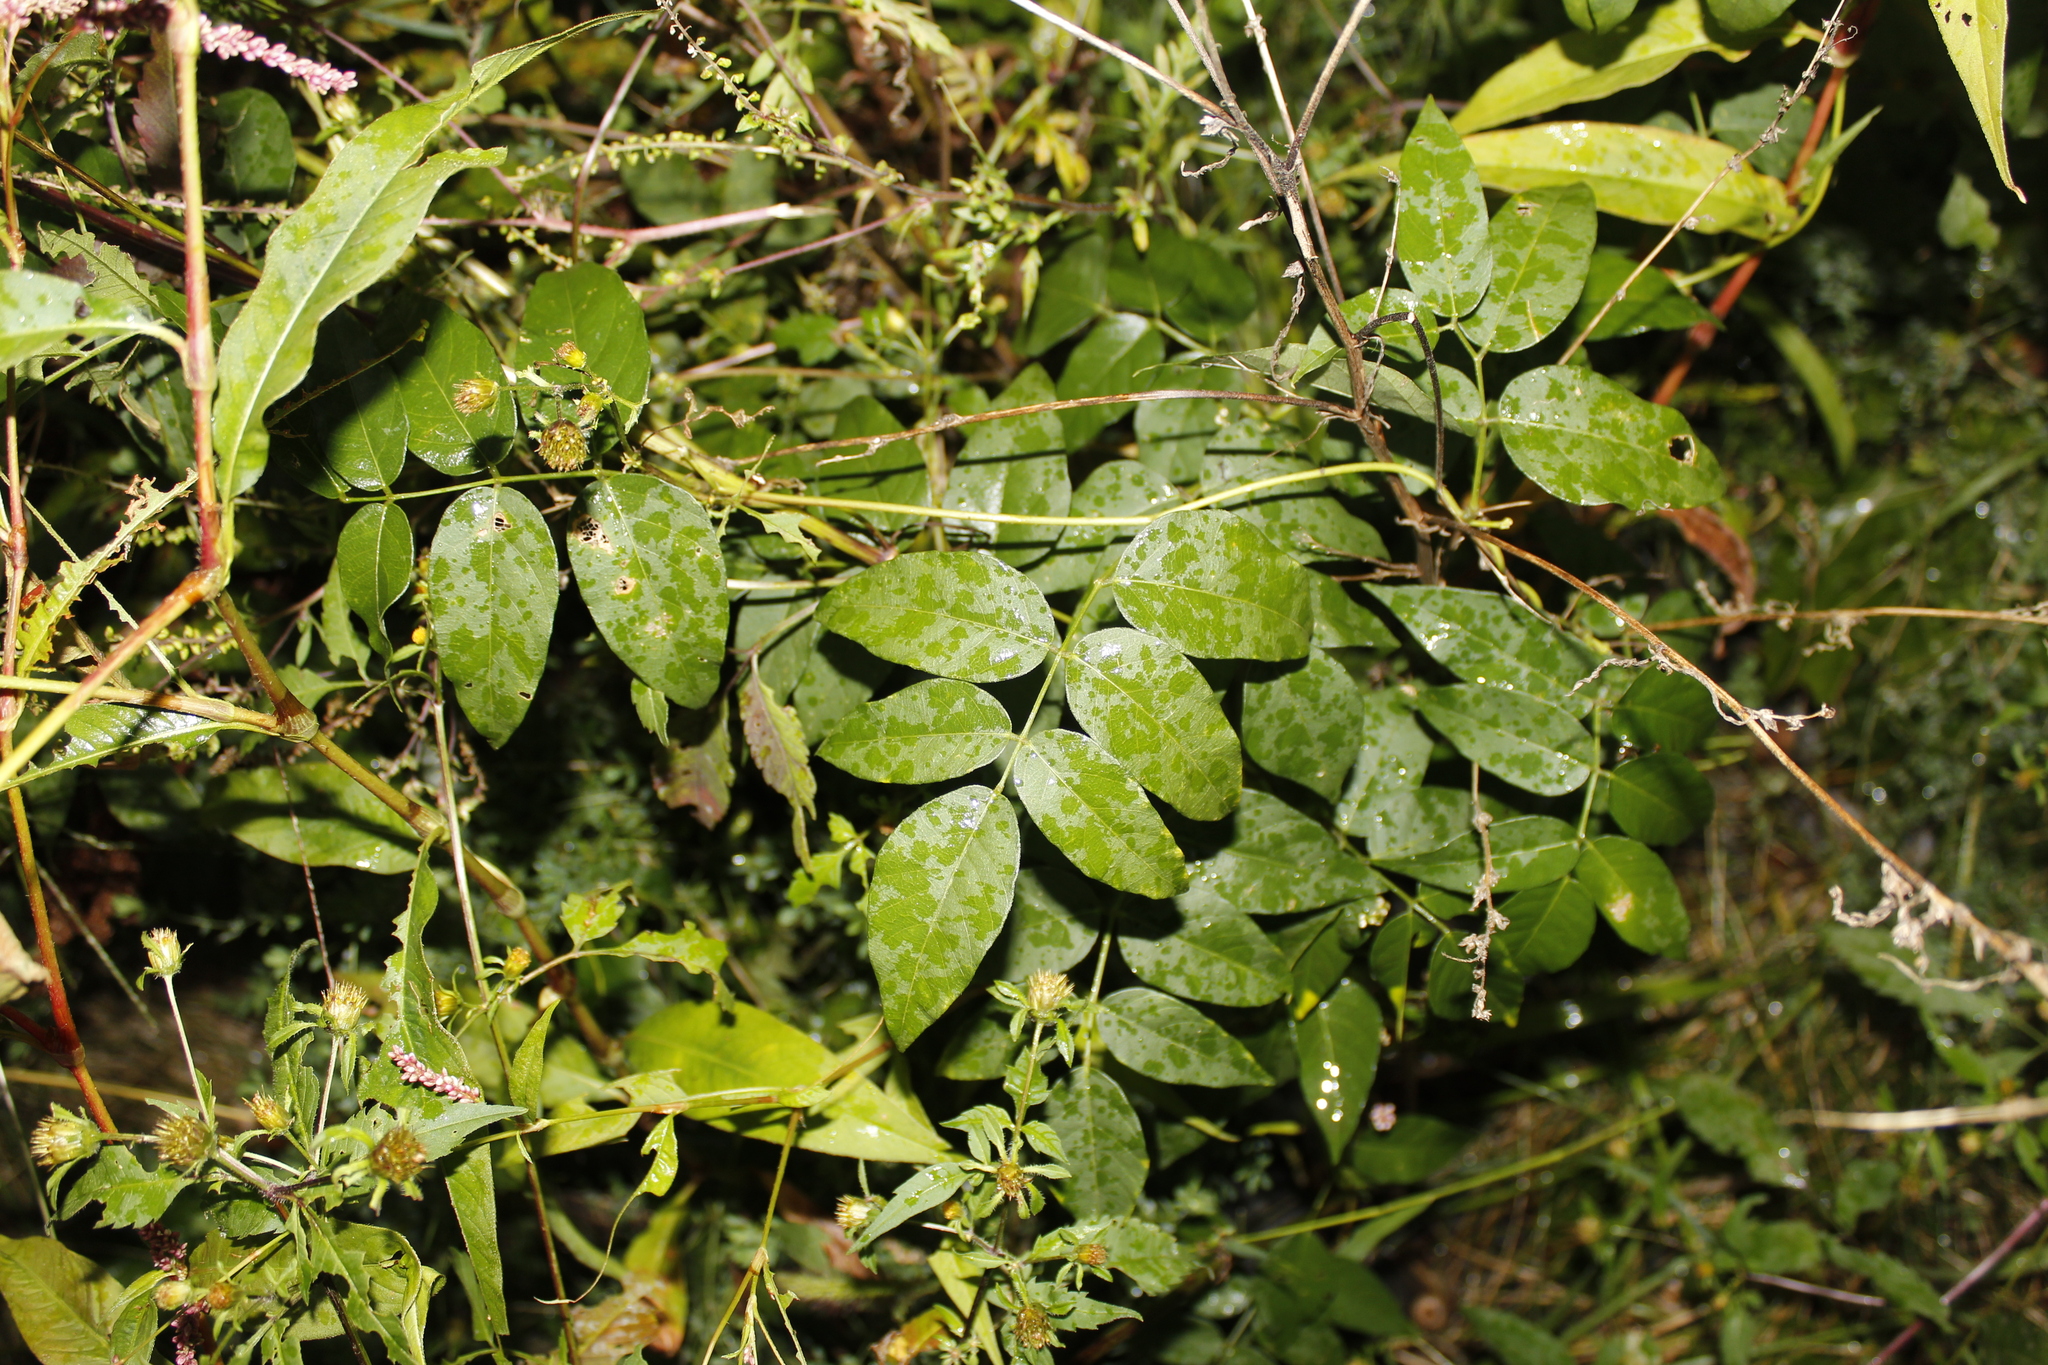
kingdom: Plantae
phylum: Tracheophyta
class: Magnoliopsida
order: Fabales
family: Fabaceae
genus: Apios
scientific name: Apios americana
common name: American potato-bean
